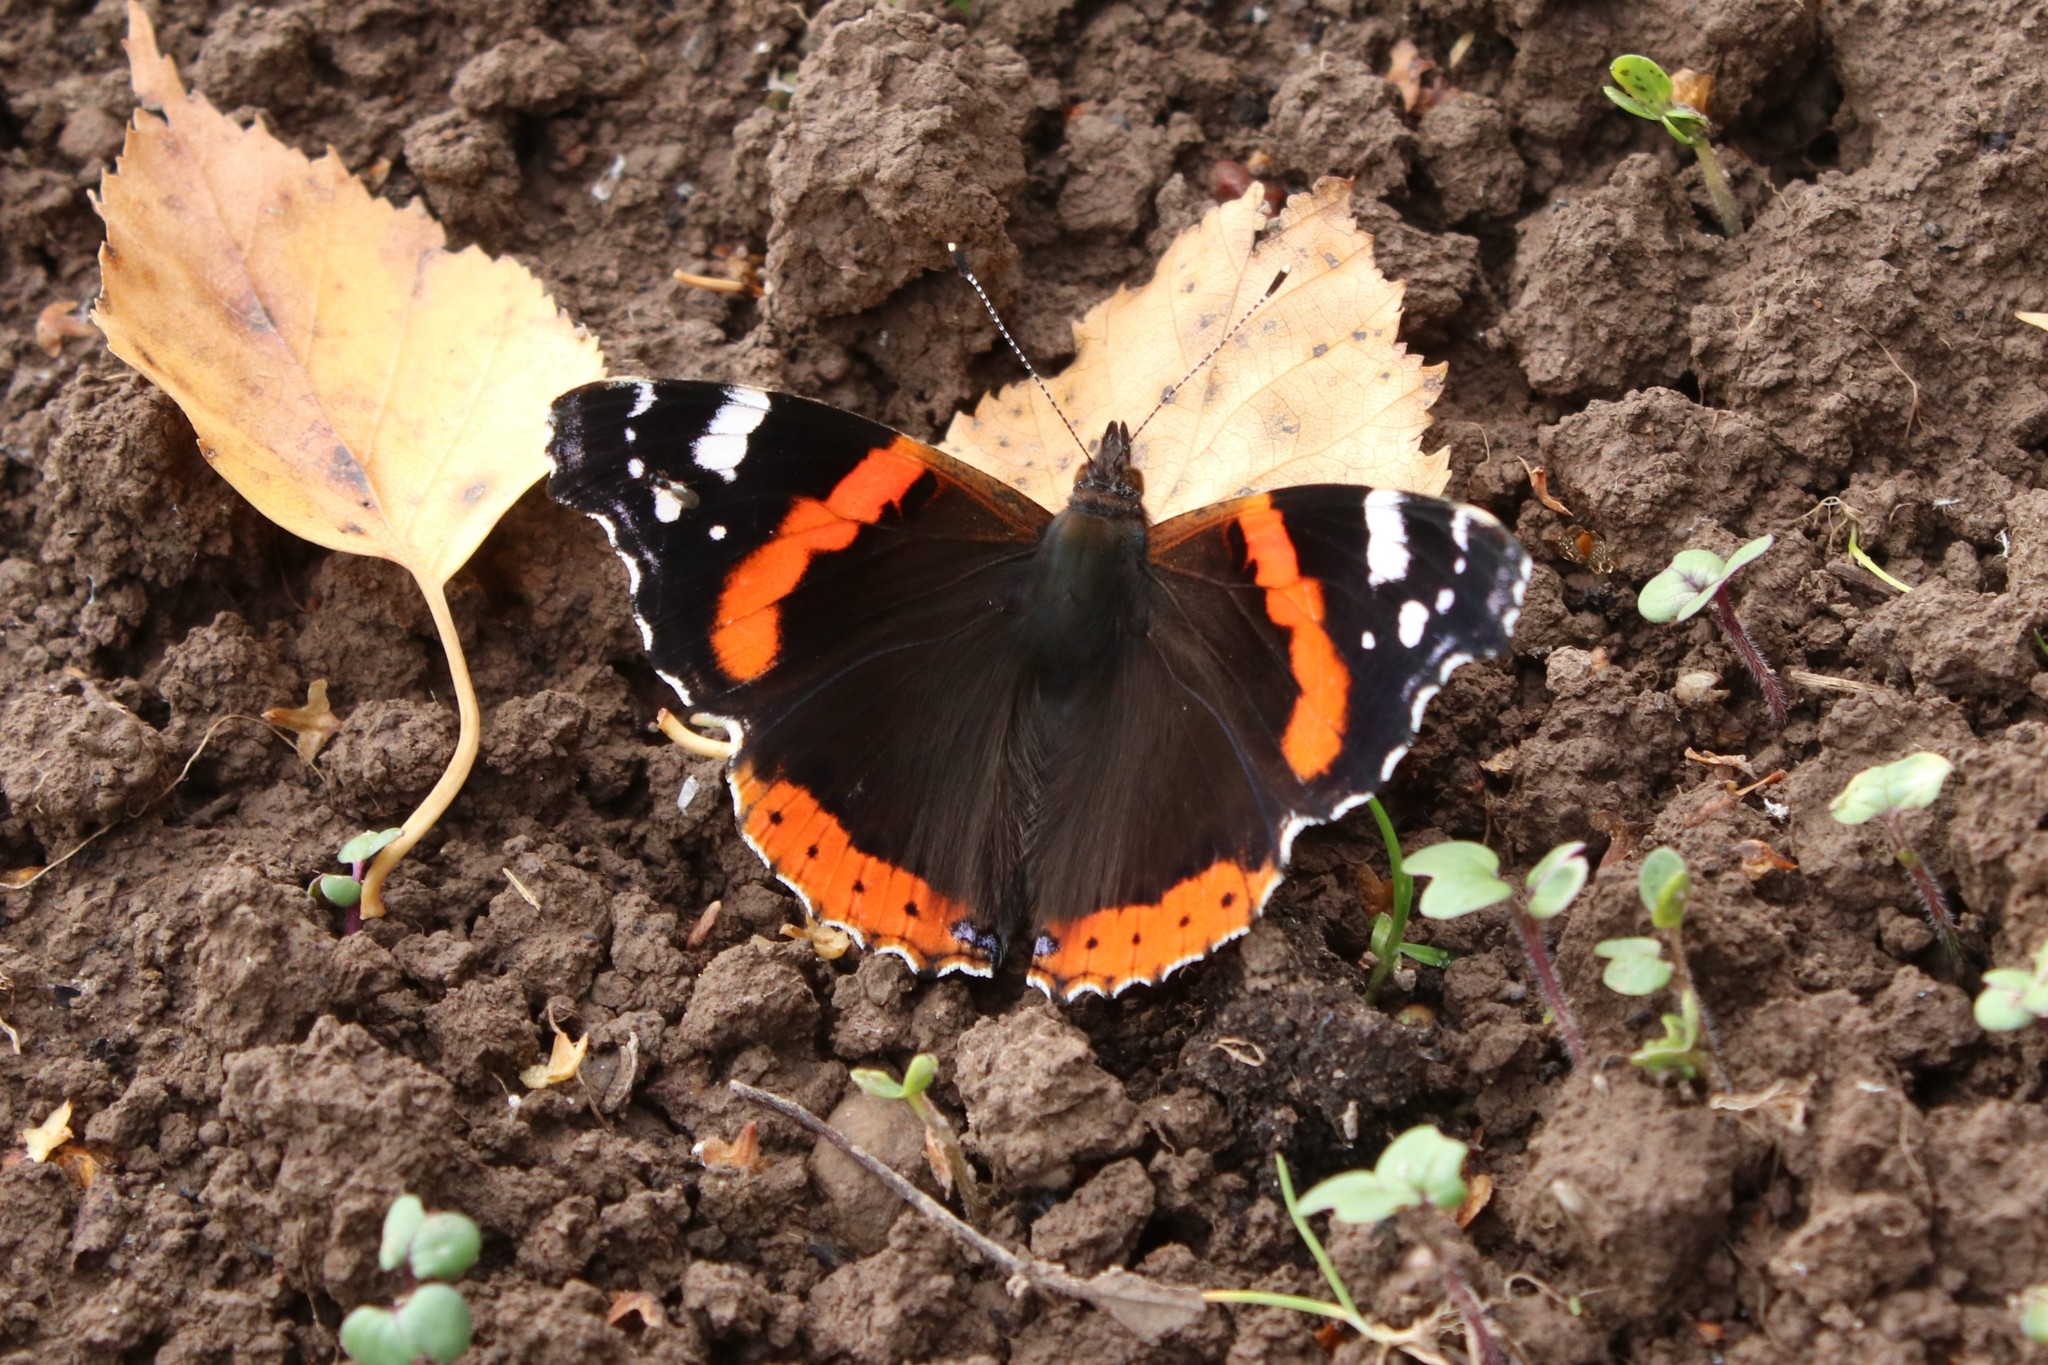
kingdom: Animalia
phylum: Arthropoda
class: Insecta
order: Lepidoptera
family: Nymphalidae
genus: Vanessa
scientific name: Vanessa atalanta
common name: Red admiral
